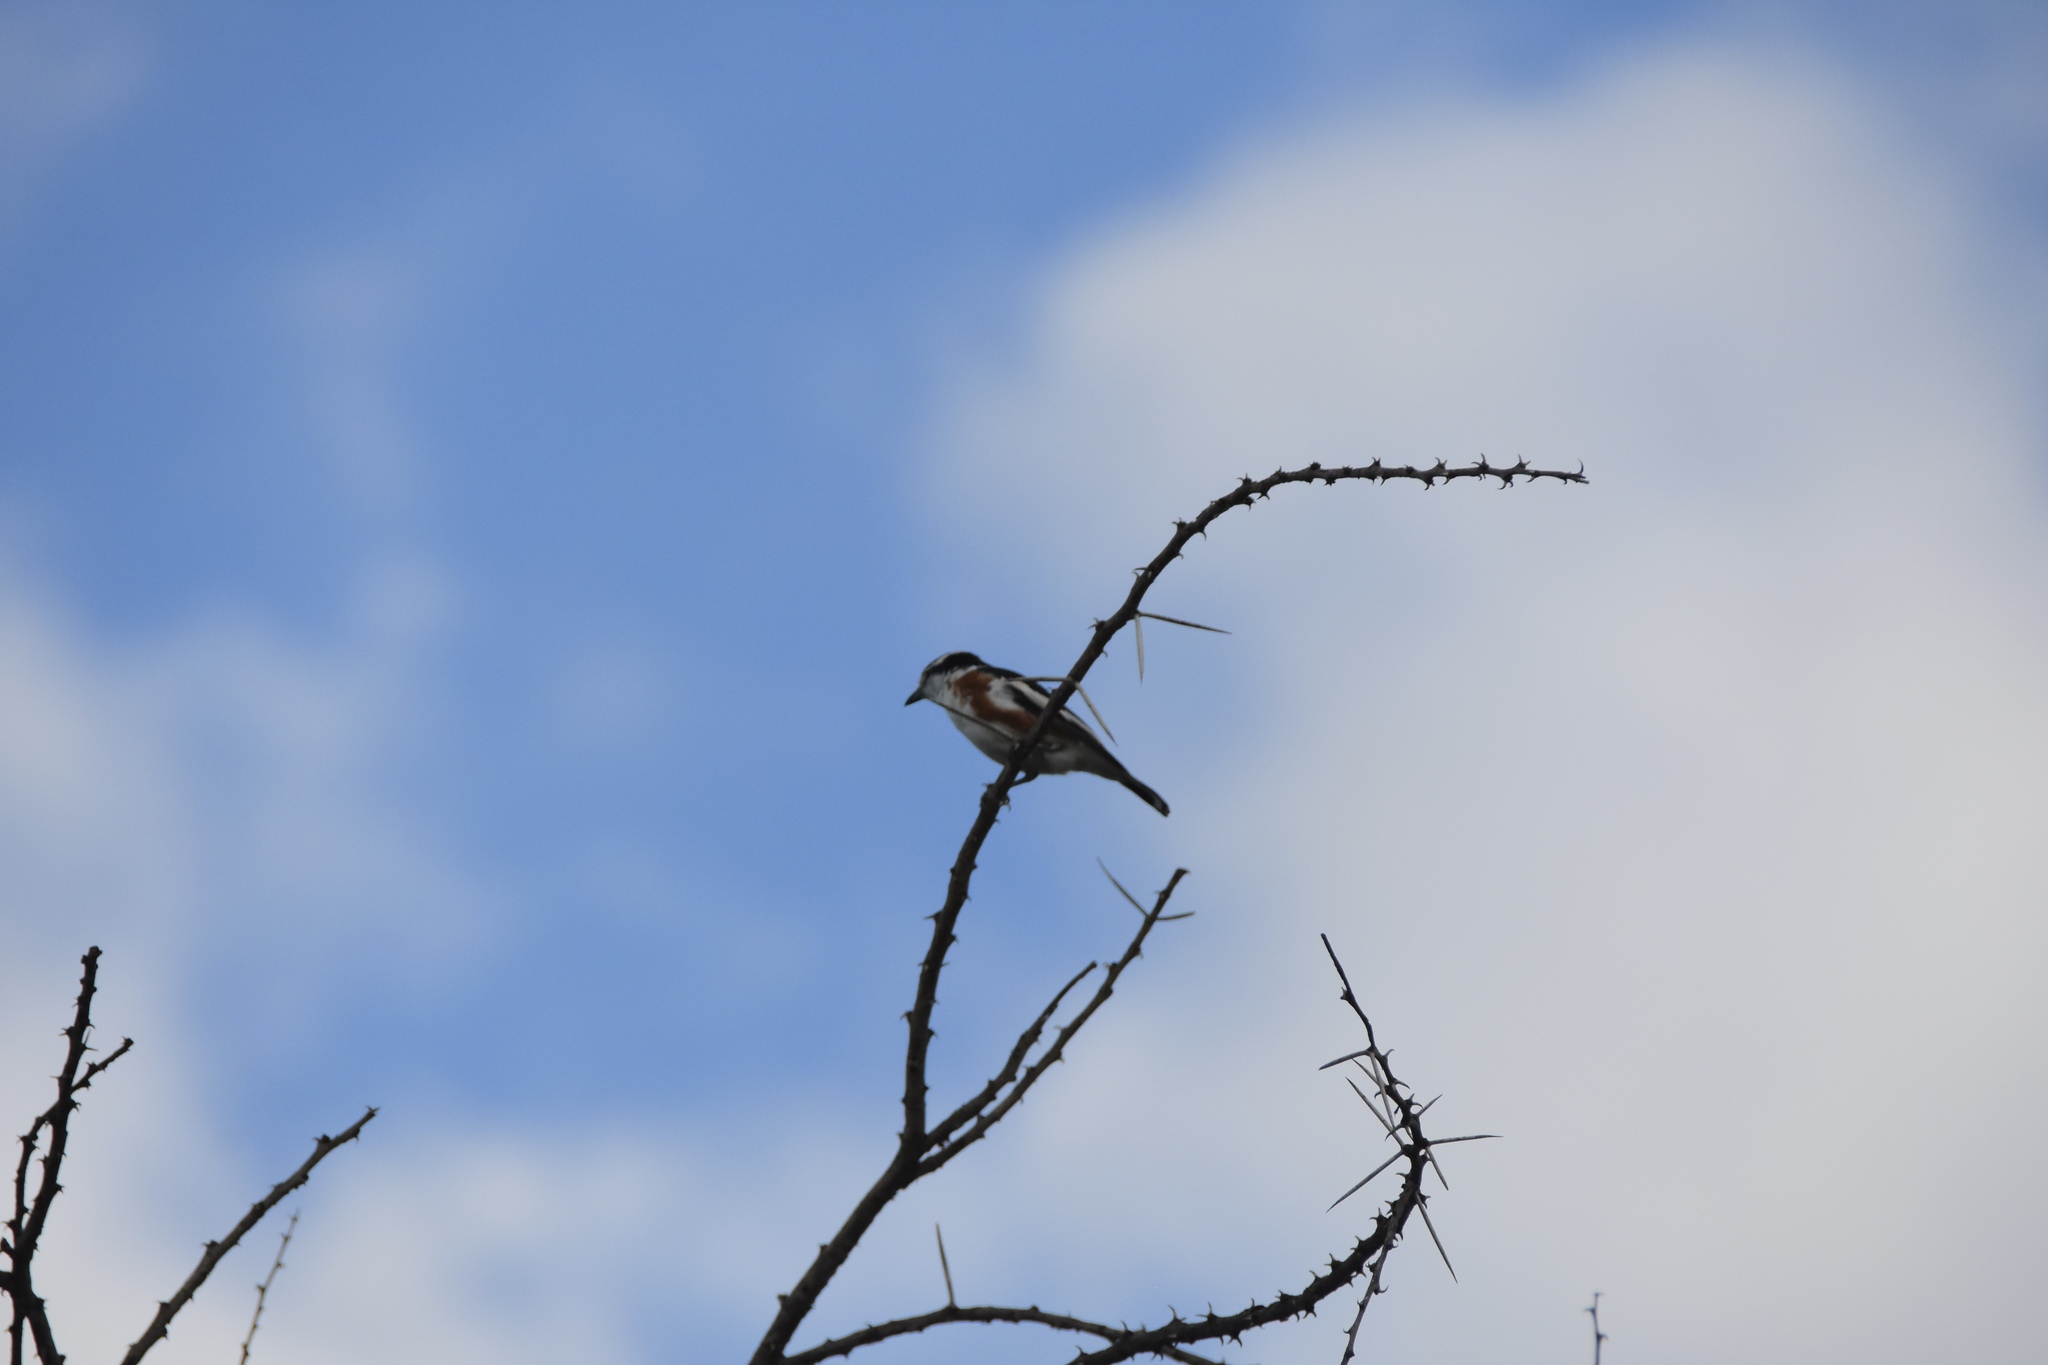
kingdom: Animalia
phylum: Chordata
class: Aves
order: Passeriformes
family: Malaconotidae
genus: Nilaus
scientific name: Nilaus afer
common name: Brubru
